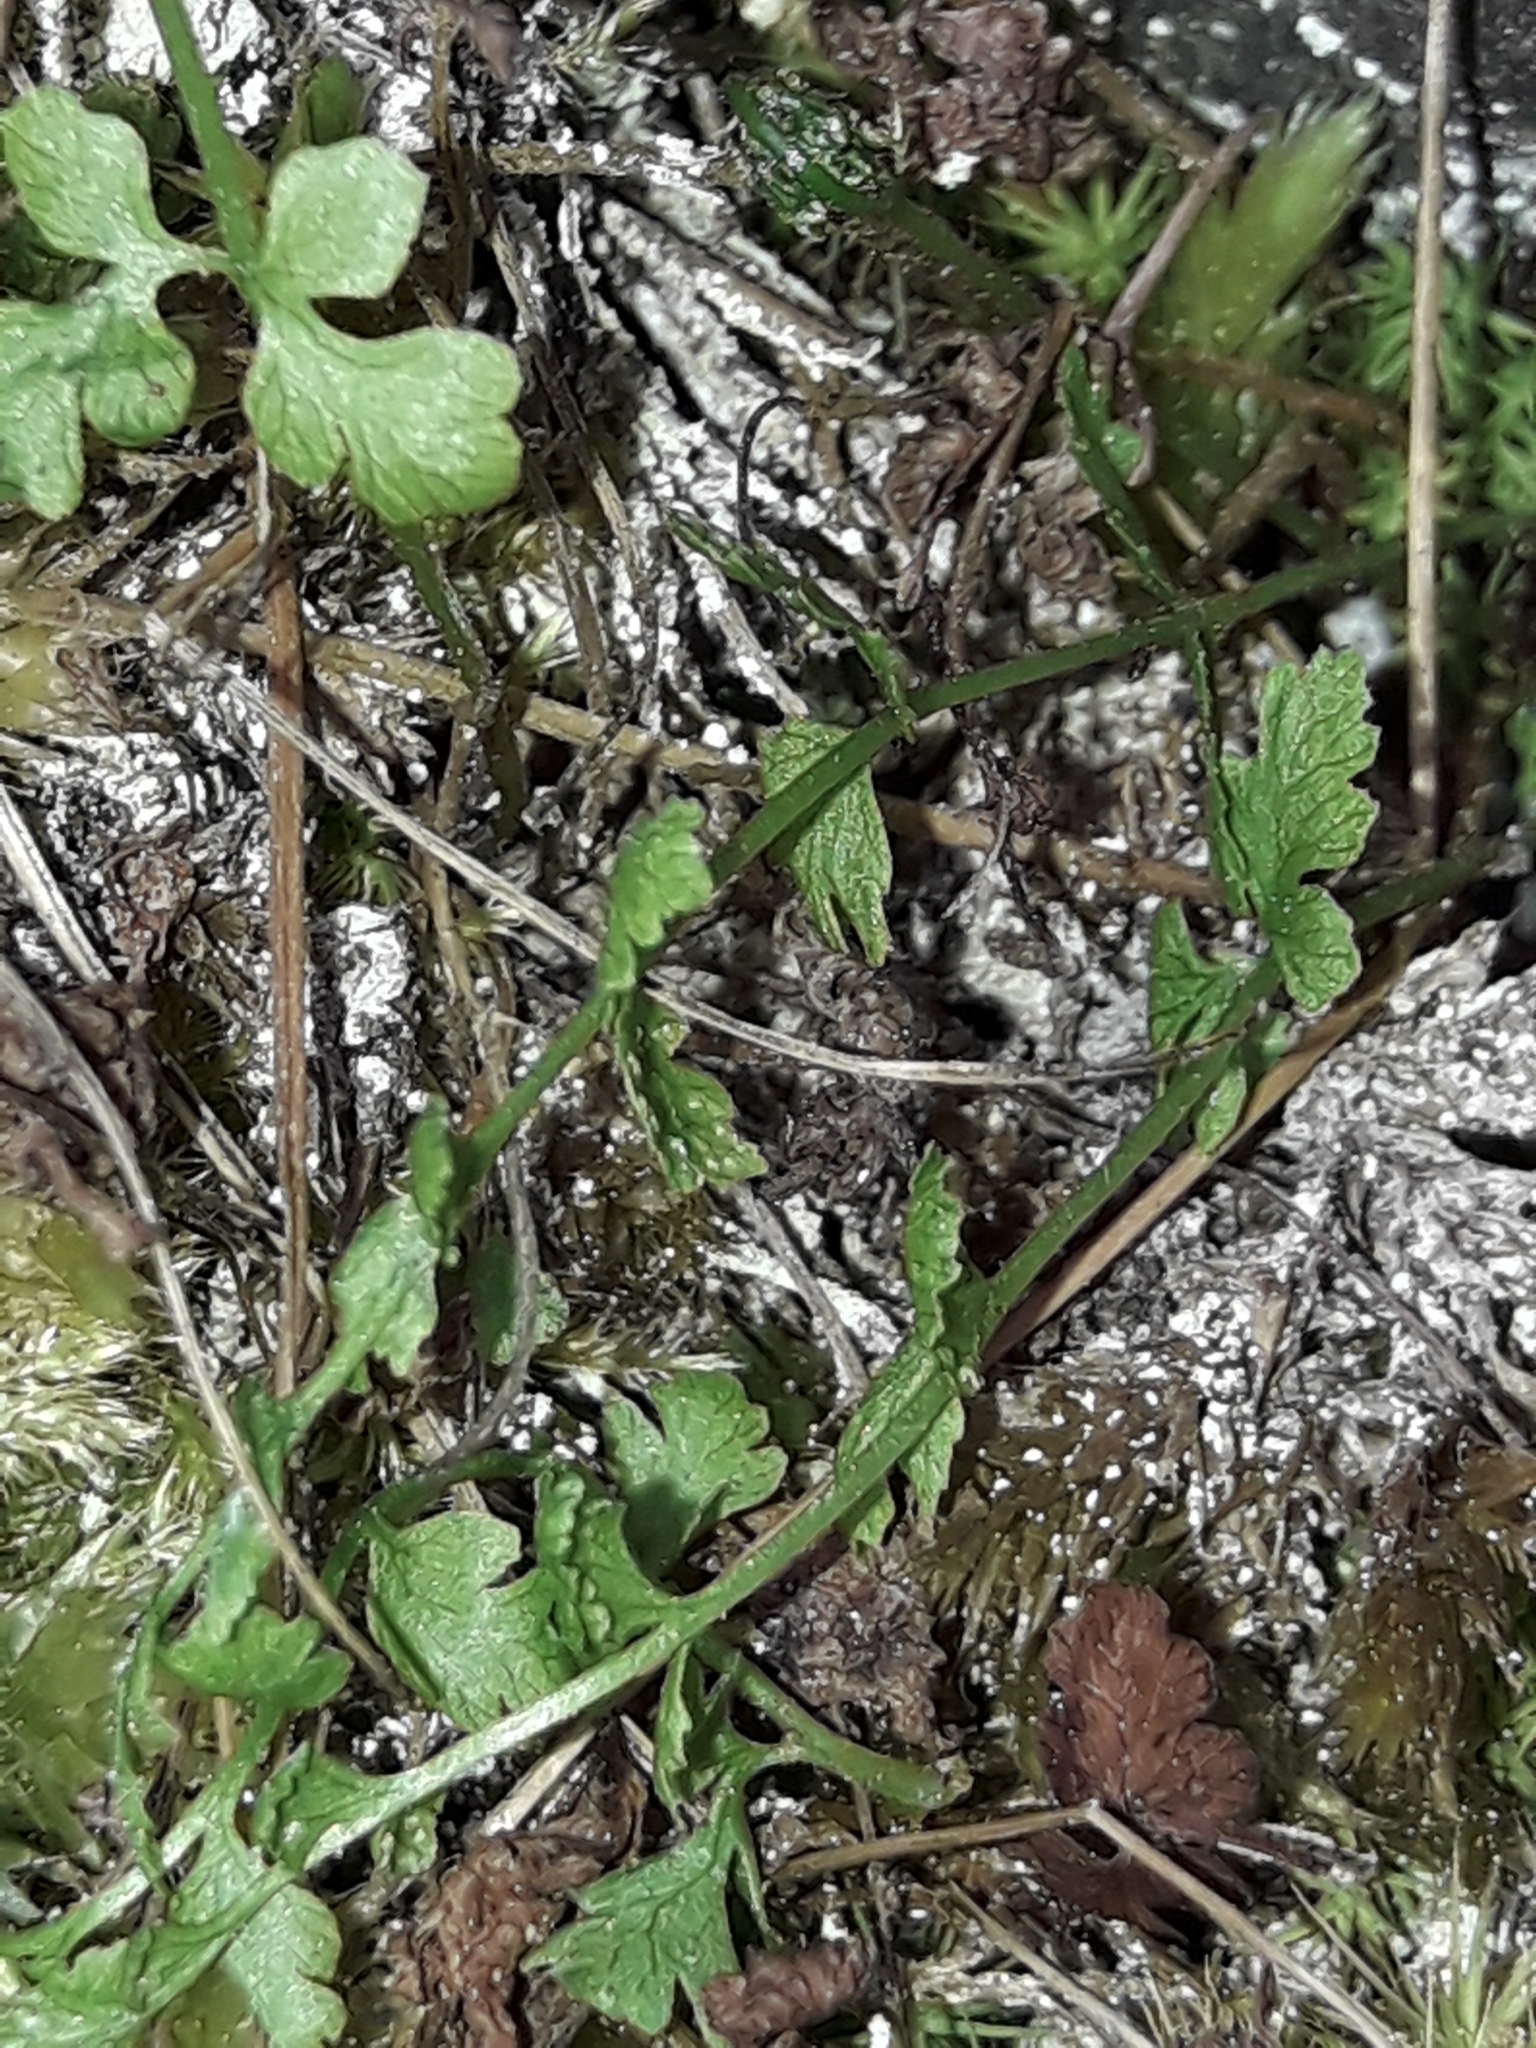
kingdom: Plantae
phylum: Tracheophyta
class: Polypodiopsida
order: Polypodiales
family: Cystopteridaceae
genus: Cystopteris
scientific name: Cystopteris tasmanica
